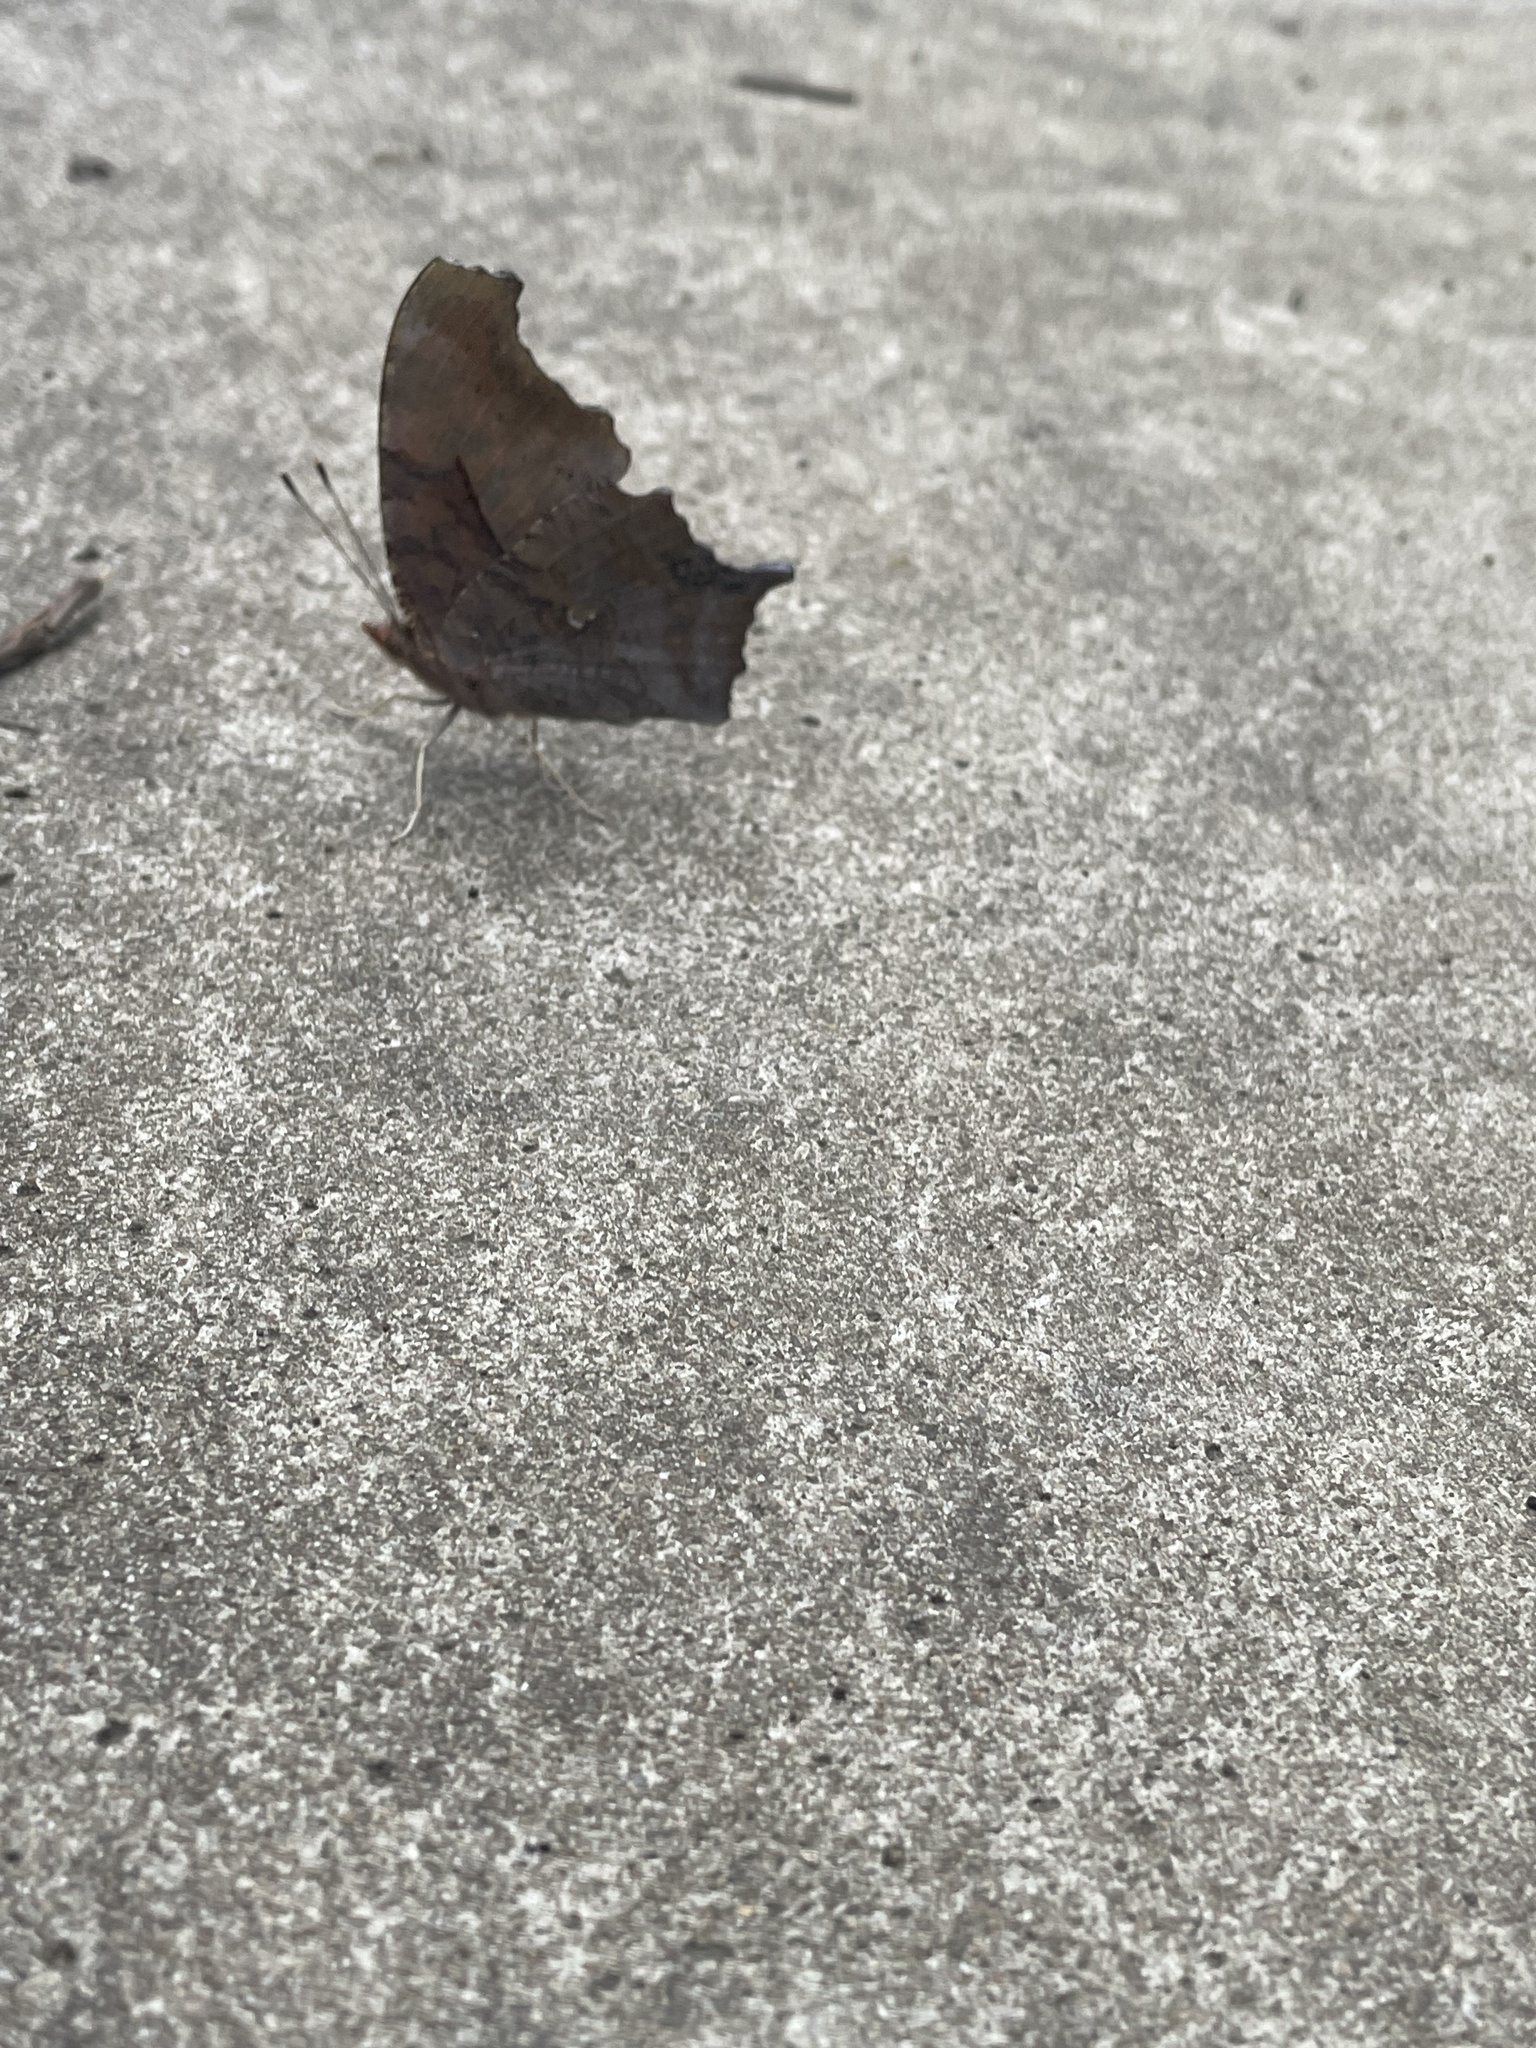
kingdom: Animalia
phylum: Arthropoda
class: Insecta
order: Lepidoptera
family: Nymphalidae
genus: Polygonia
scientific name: Polygonia interrogationis
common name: Question mark
